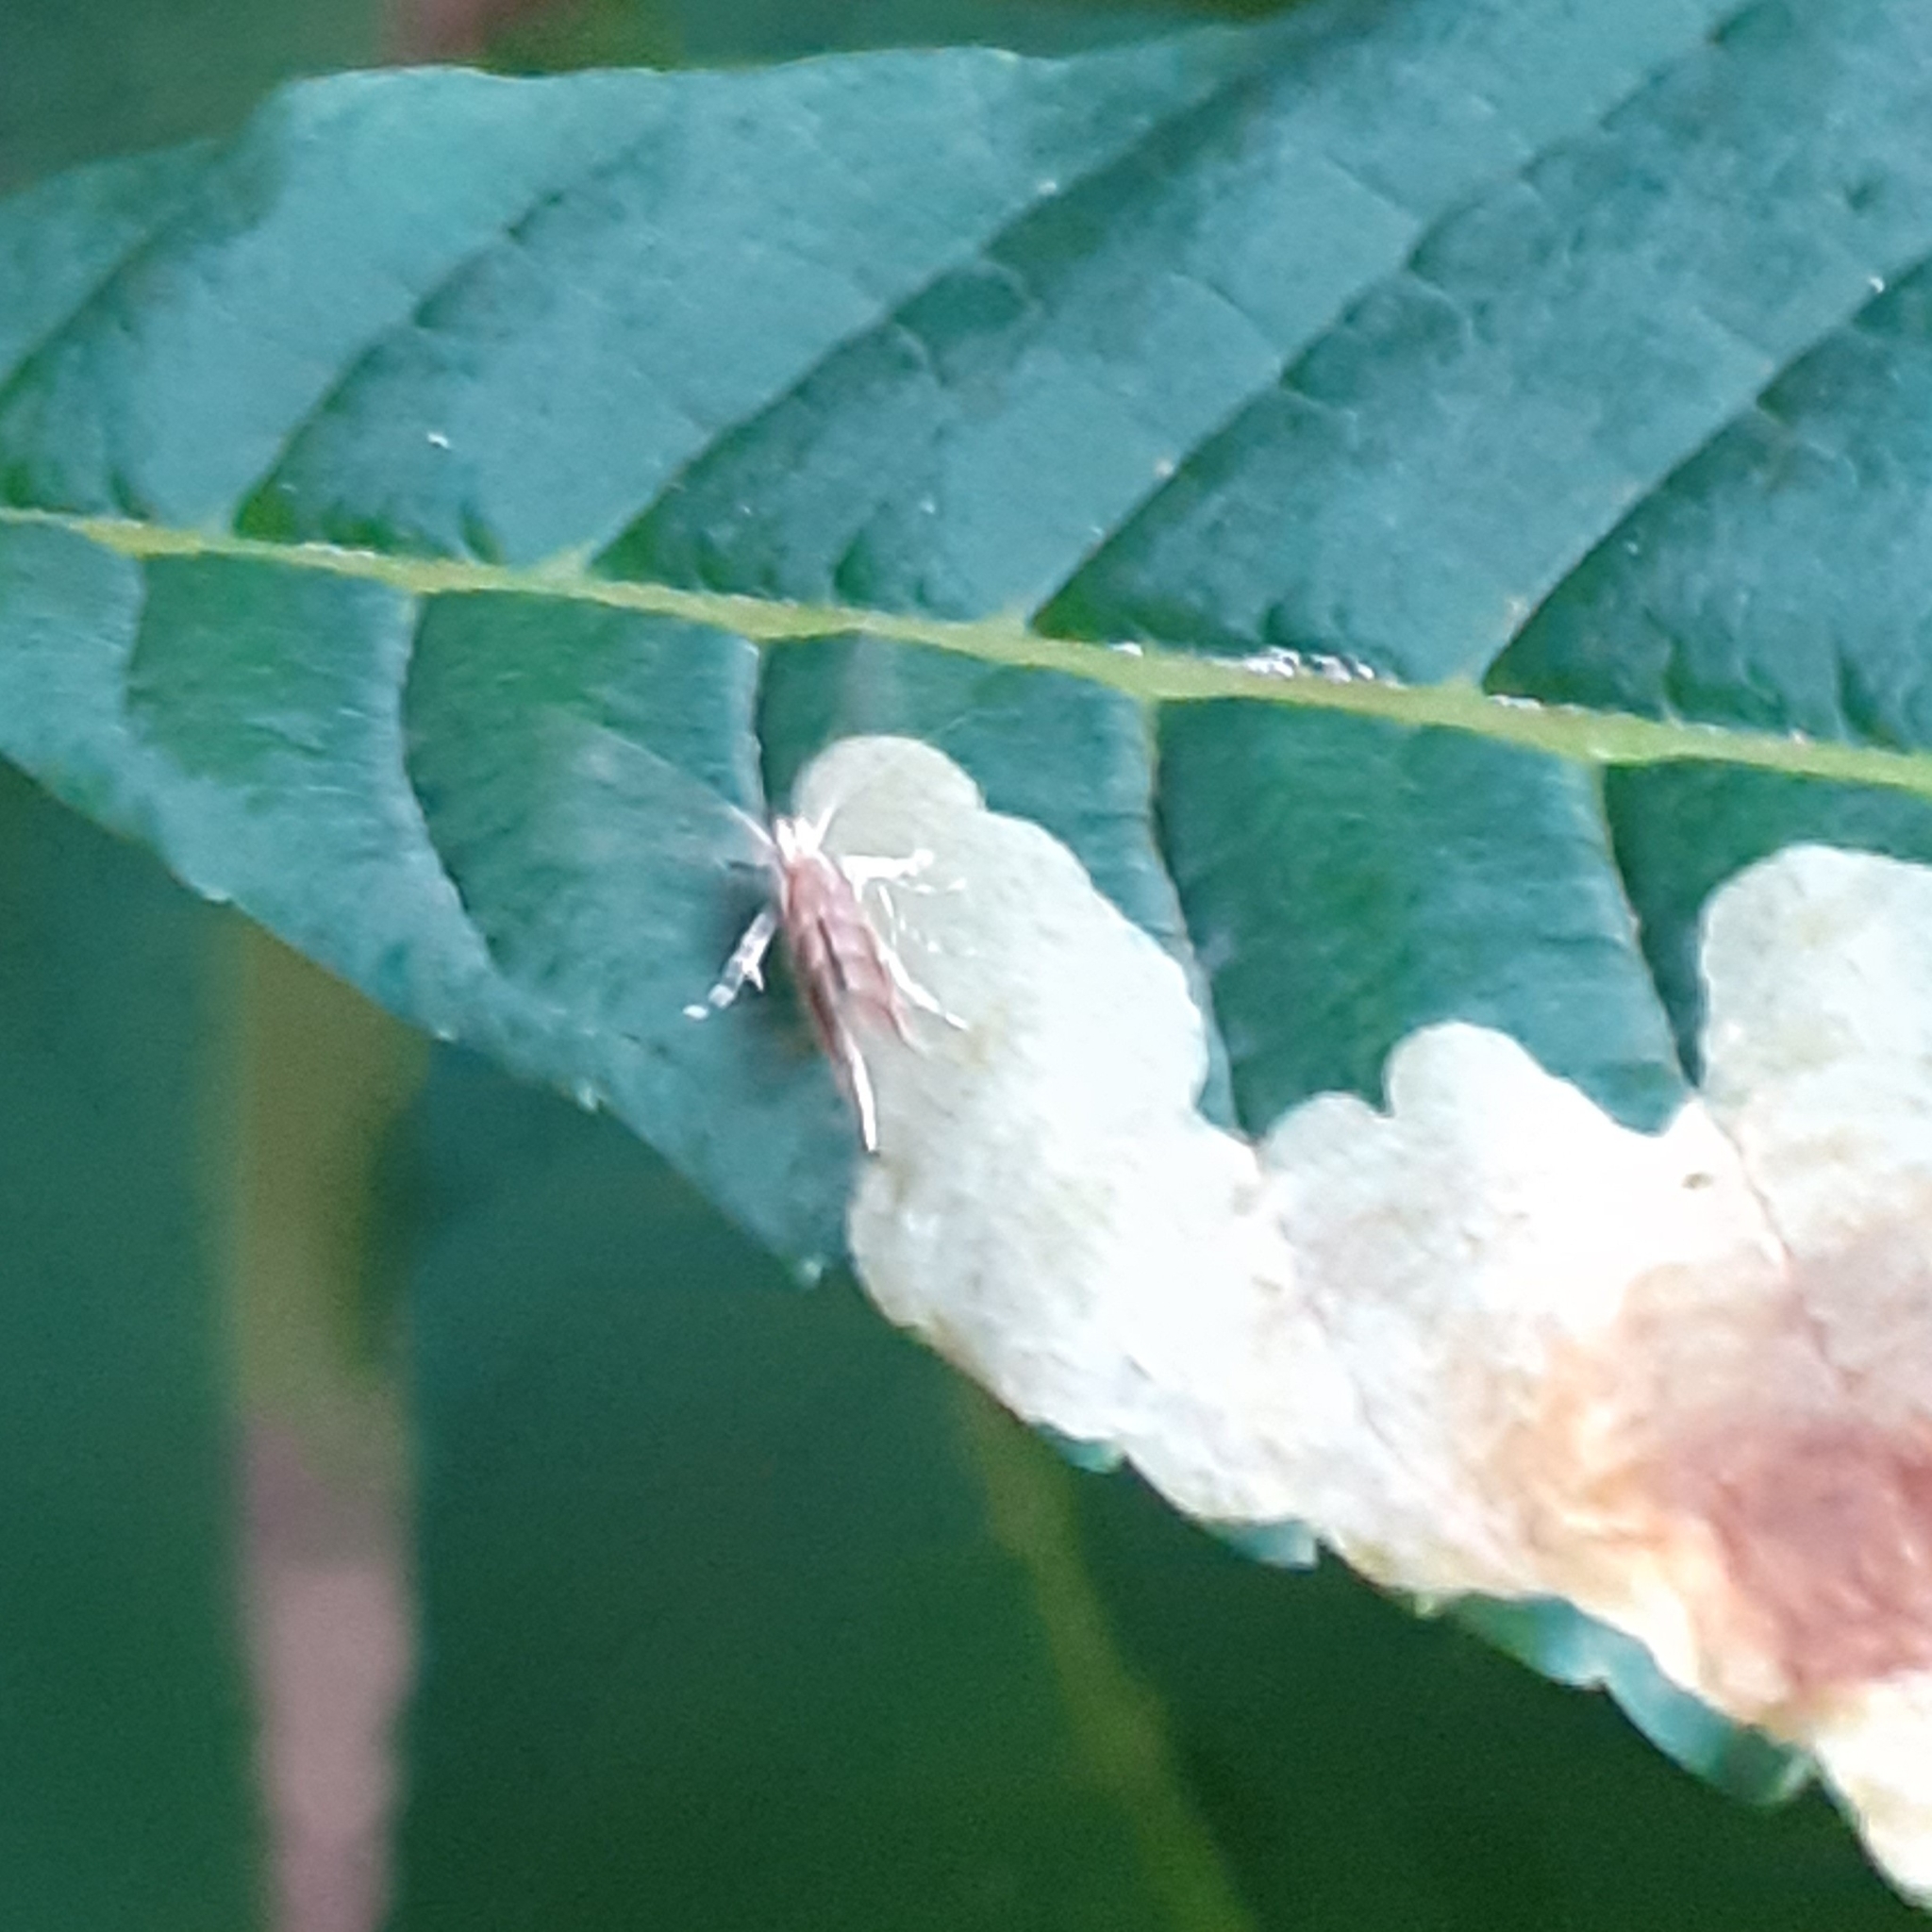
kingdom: Animalia
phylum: Arthropoda
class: Insecta
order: Lepidoptera
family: Gracillariidae
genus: Cameraria
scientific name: Cameraria ohridella
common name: Horse-chestnut leaf-miner
